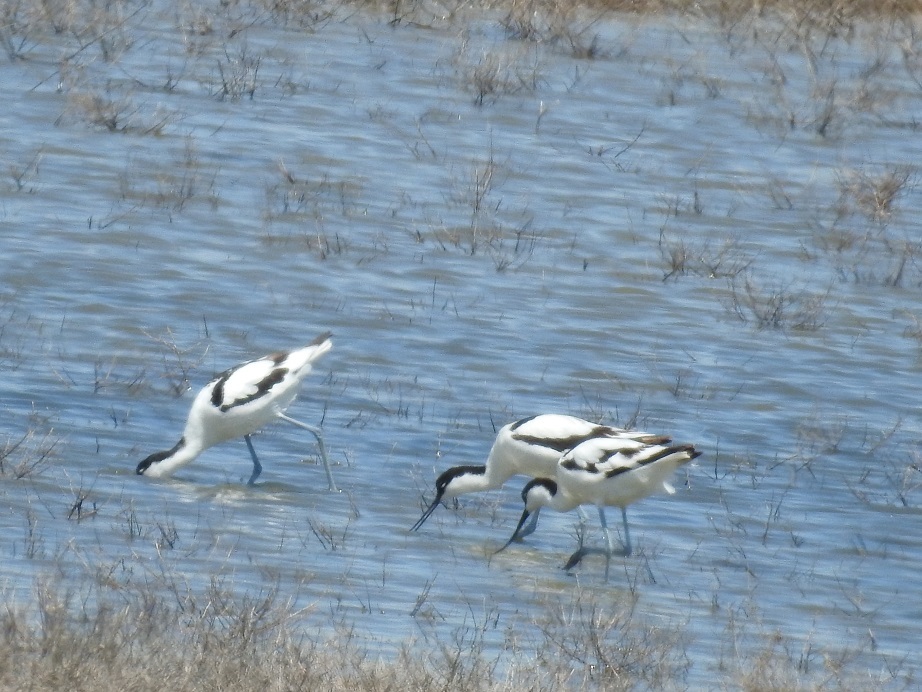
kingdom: Animalia
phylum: Chordata
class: Aves
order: Charadriiformes
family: Recurvirostridae
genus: Recurvirostra
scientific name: Recurvirostra avosetta
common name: Pied avocet
